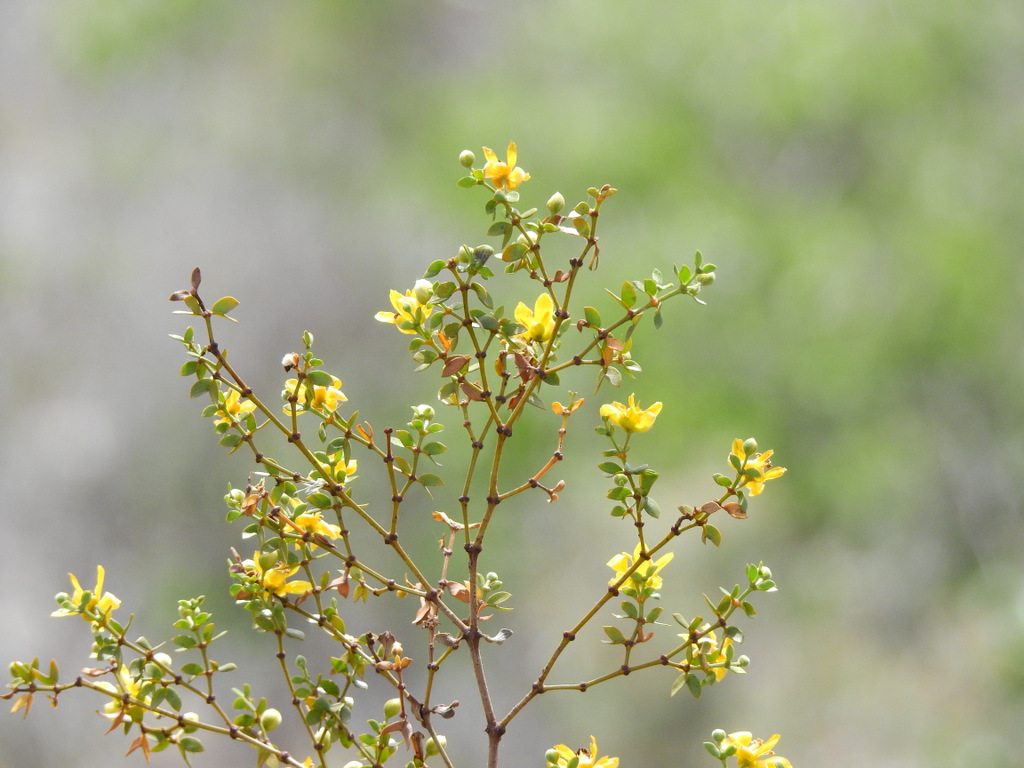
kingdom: Plantae
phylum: Tracheophyta
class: Magnoliopsida
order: Zygophyllales
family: Zygophyllaceae
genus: Larrea
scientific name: Larrea divaricata
